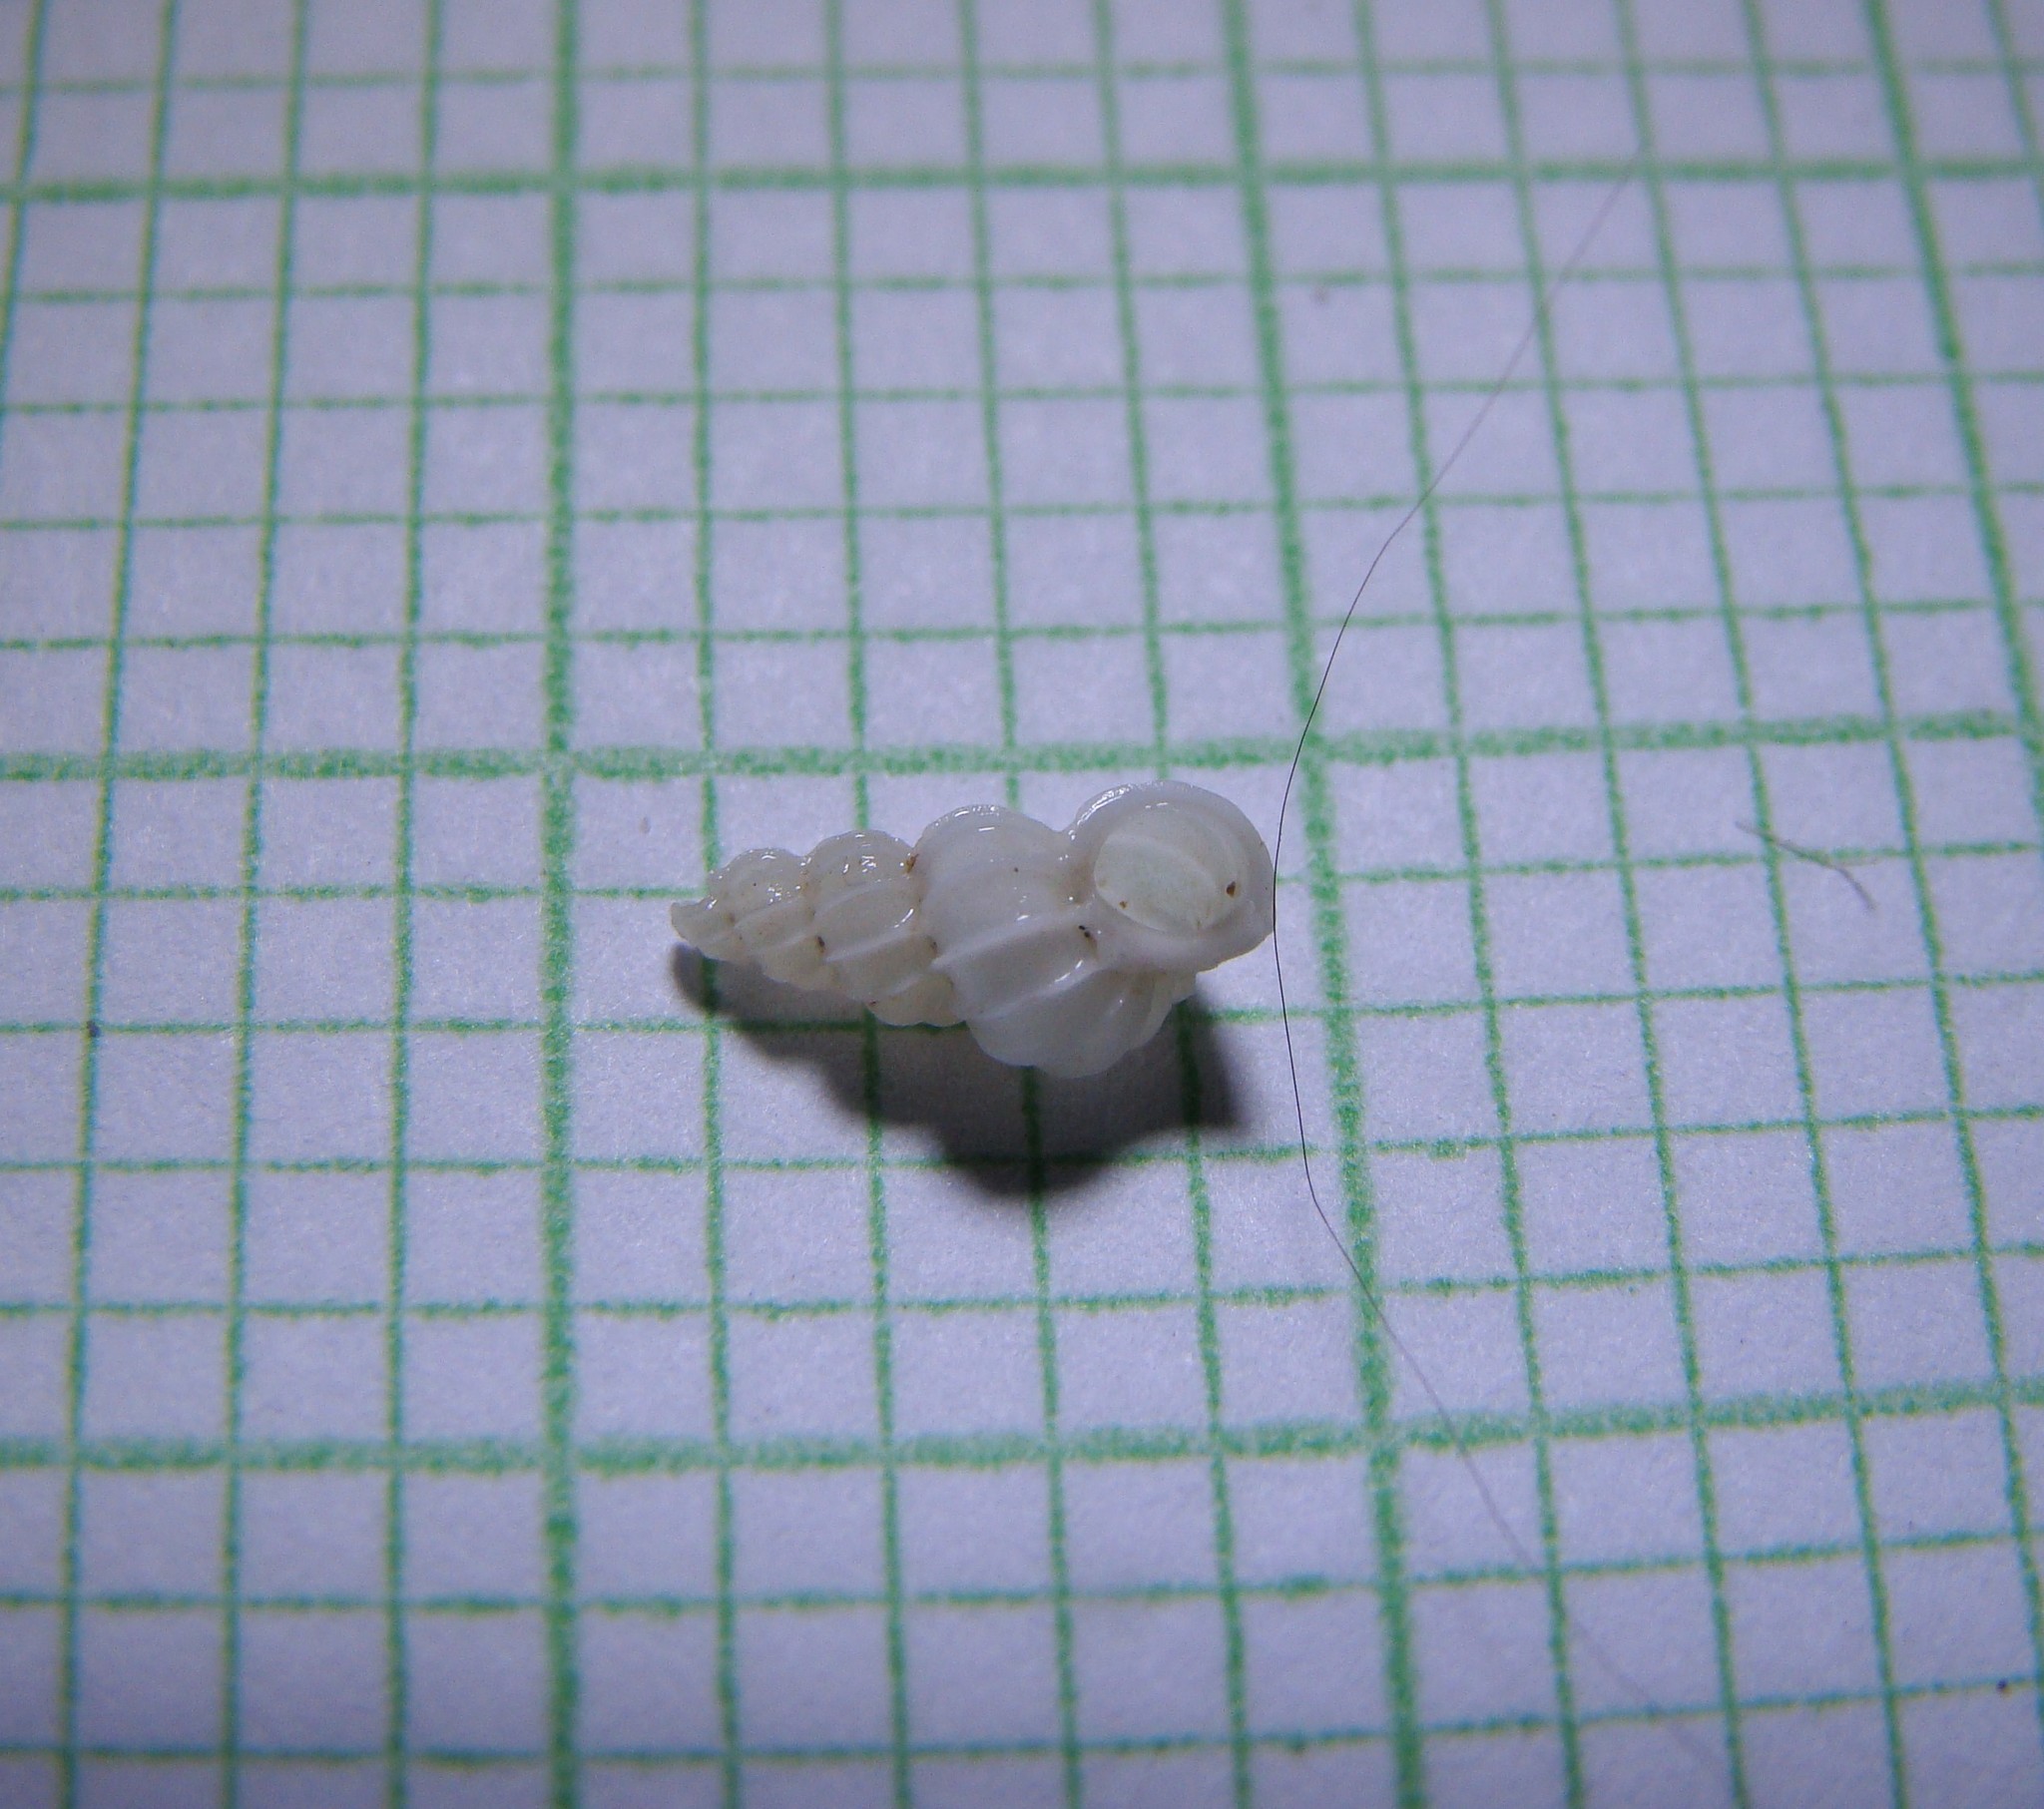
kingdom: Animalia
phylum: Mollusca
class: Gastropoda
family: Epitoniidae
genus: Epitonium
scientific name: Epitonium minorum
